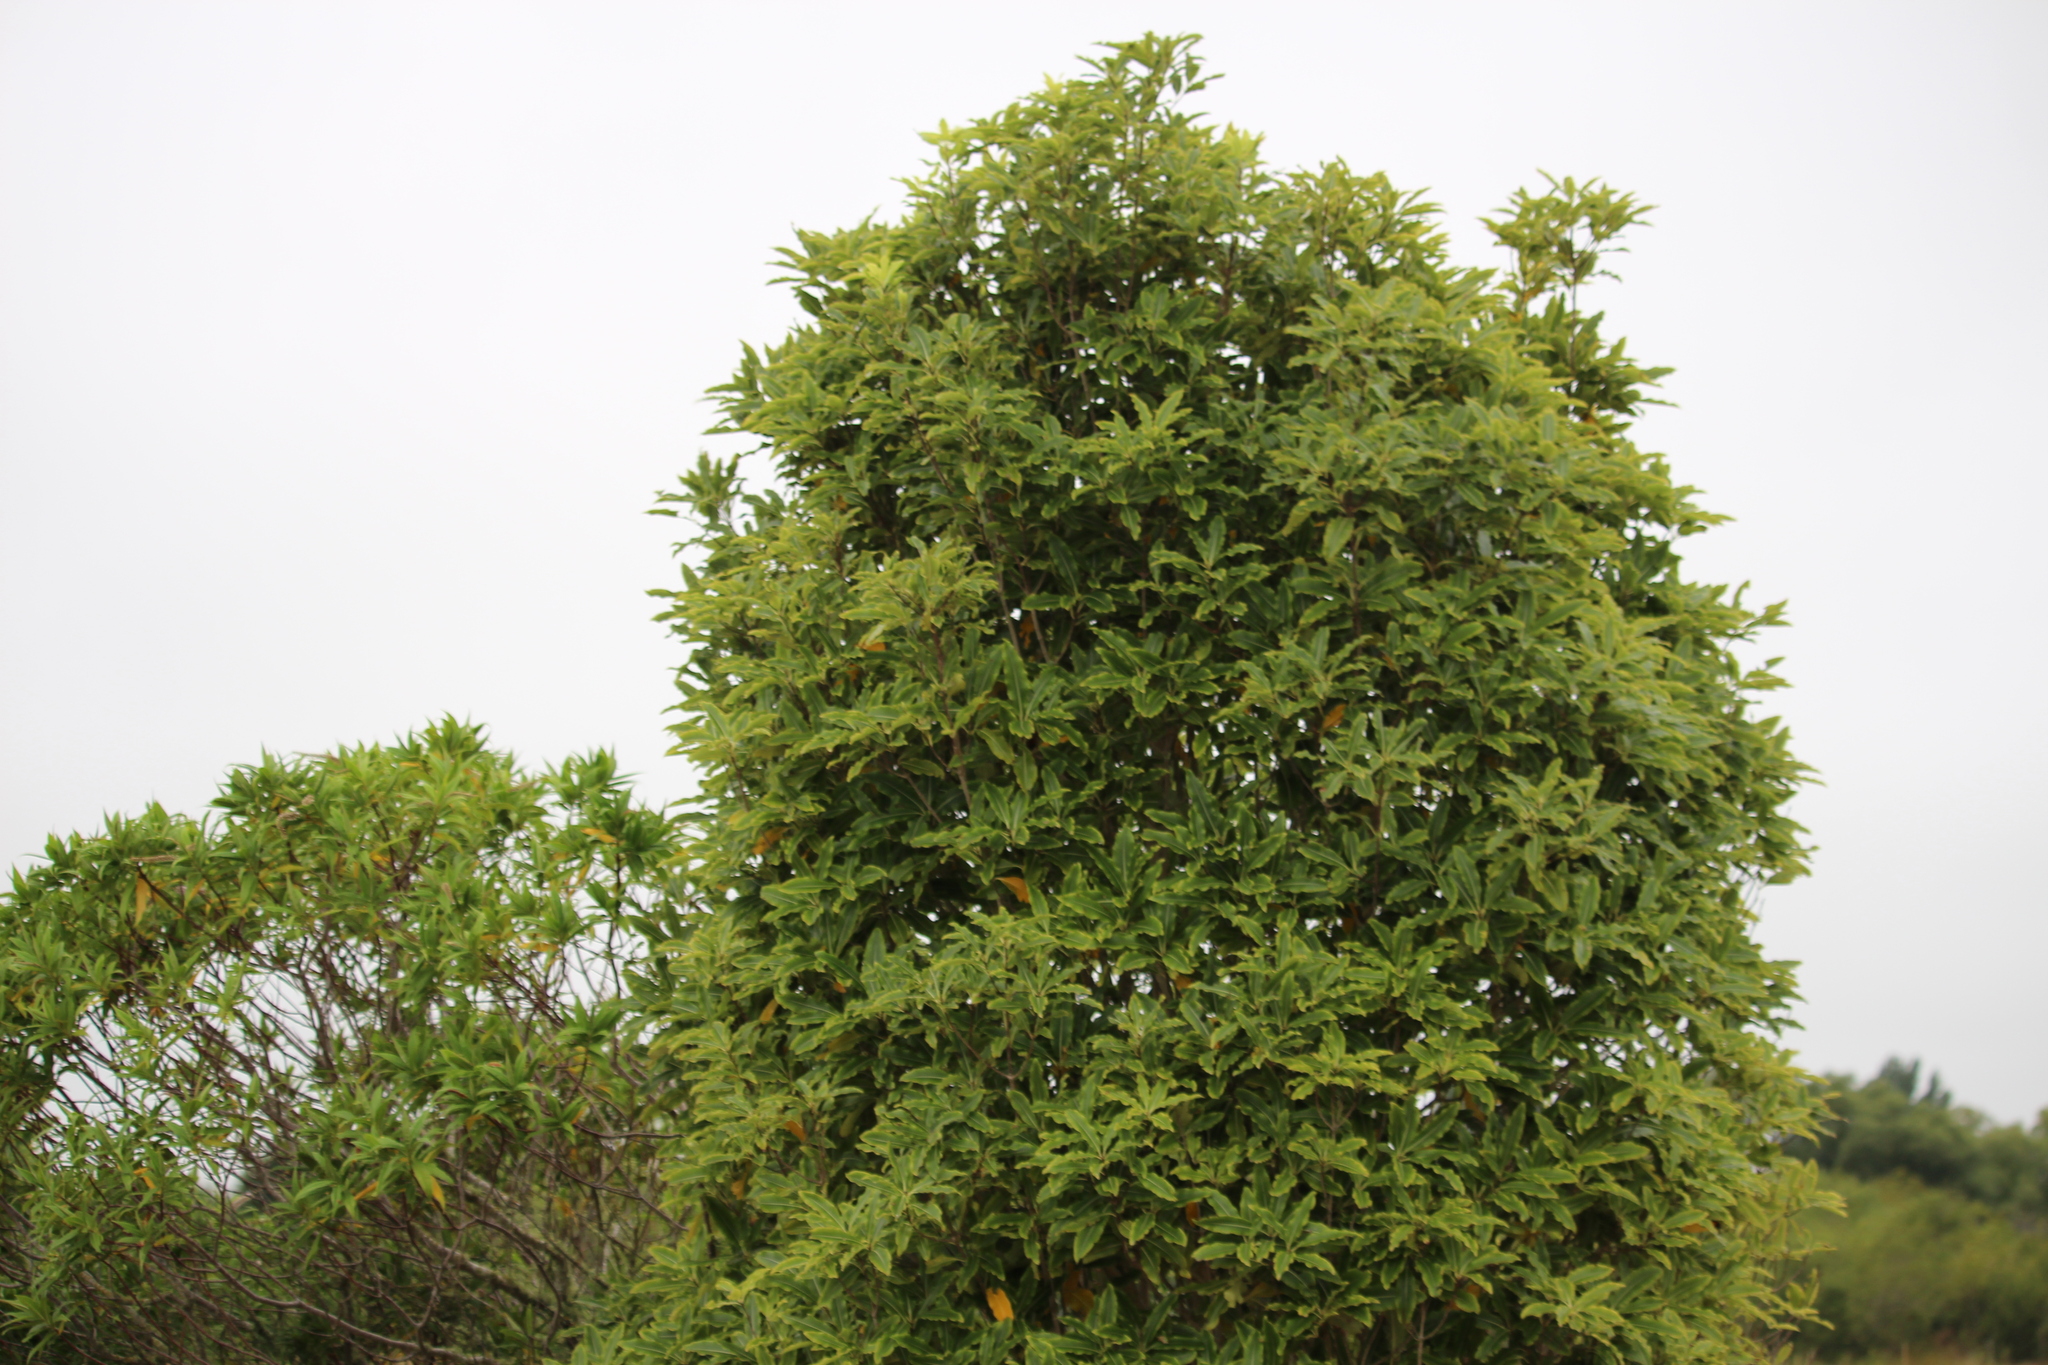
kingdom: Plantae
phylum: Tracheophyta
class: Magnoliopsida
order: Apiales
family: Pittosporaceae
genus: Pittosporum
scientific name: Pittosporum eugenioides
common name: Lemonwood
